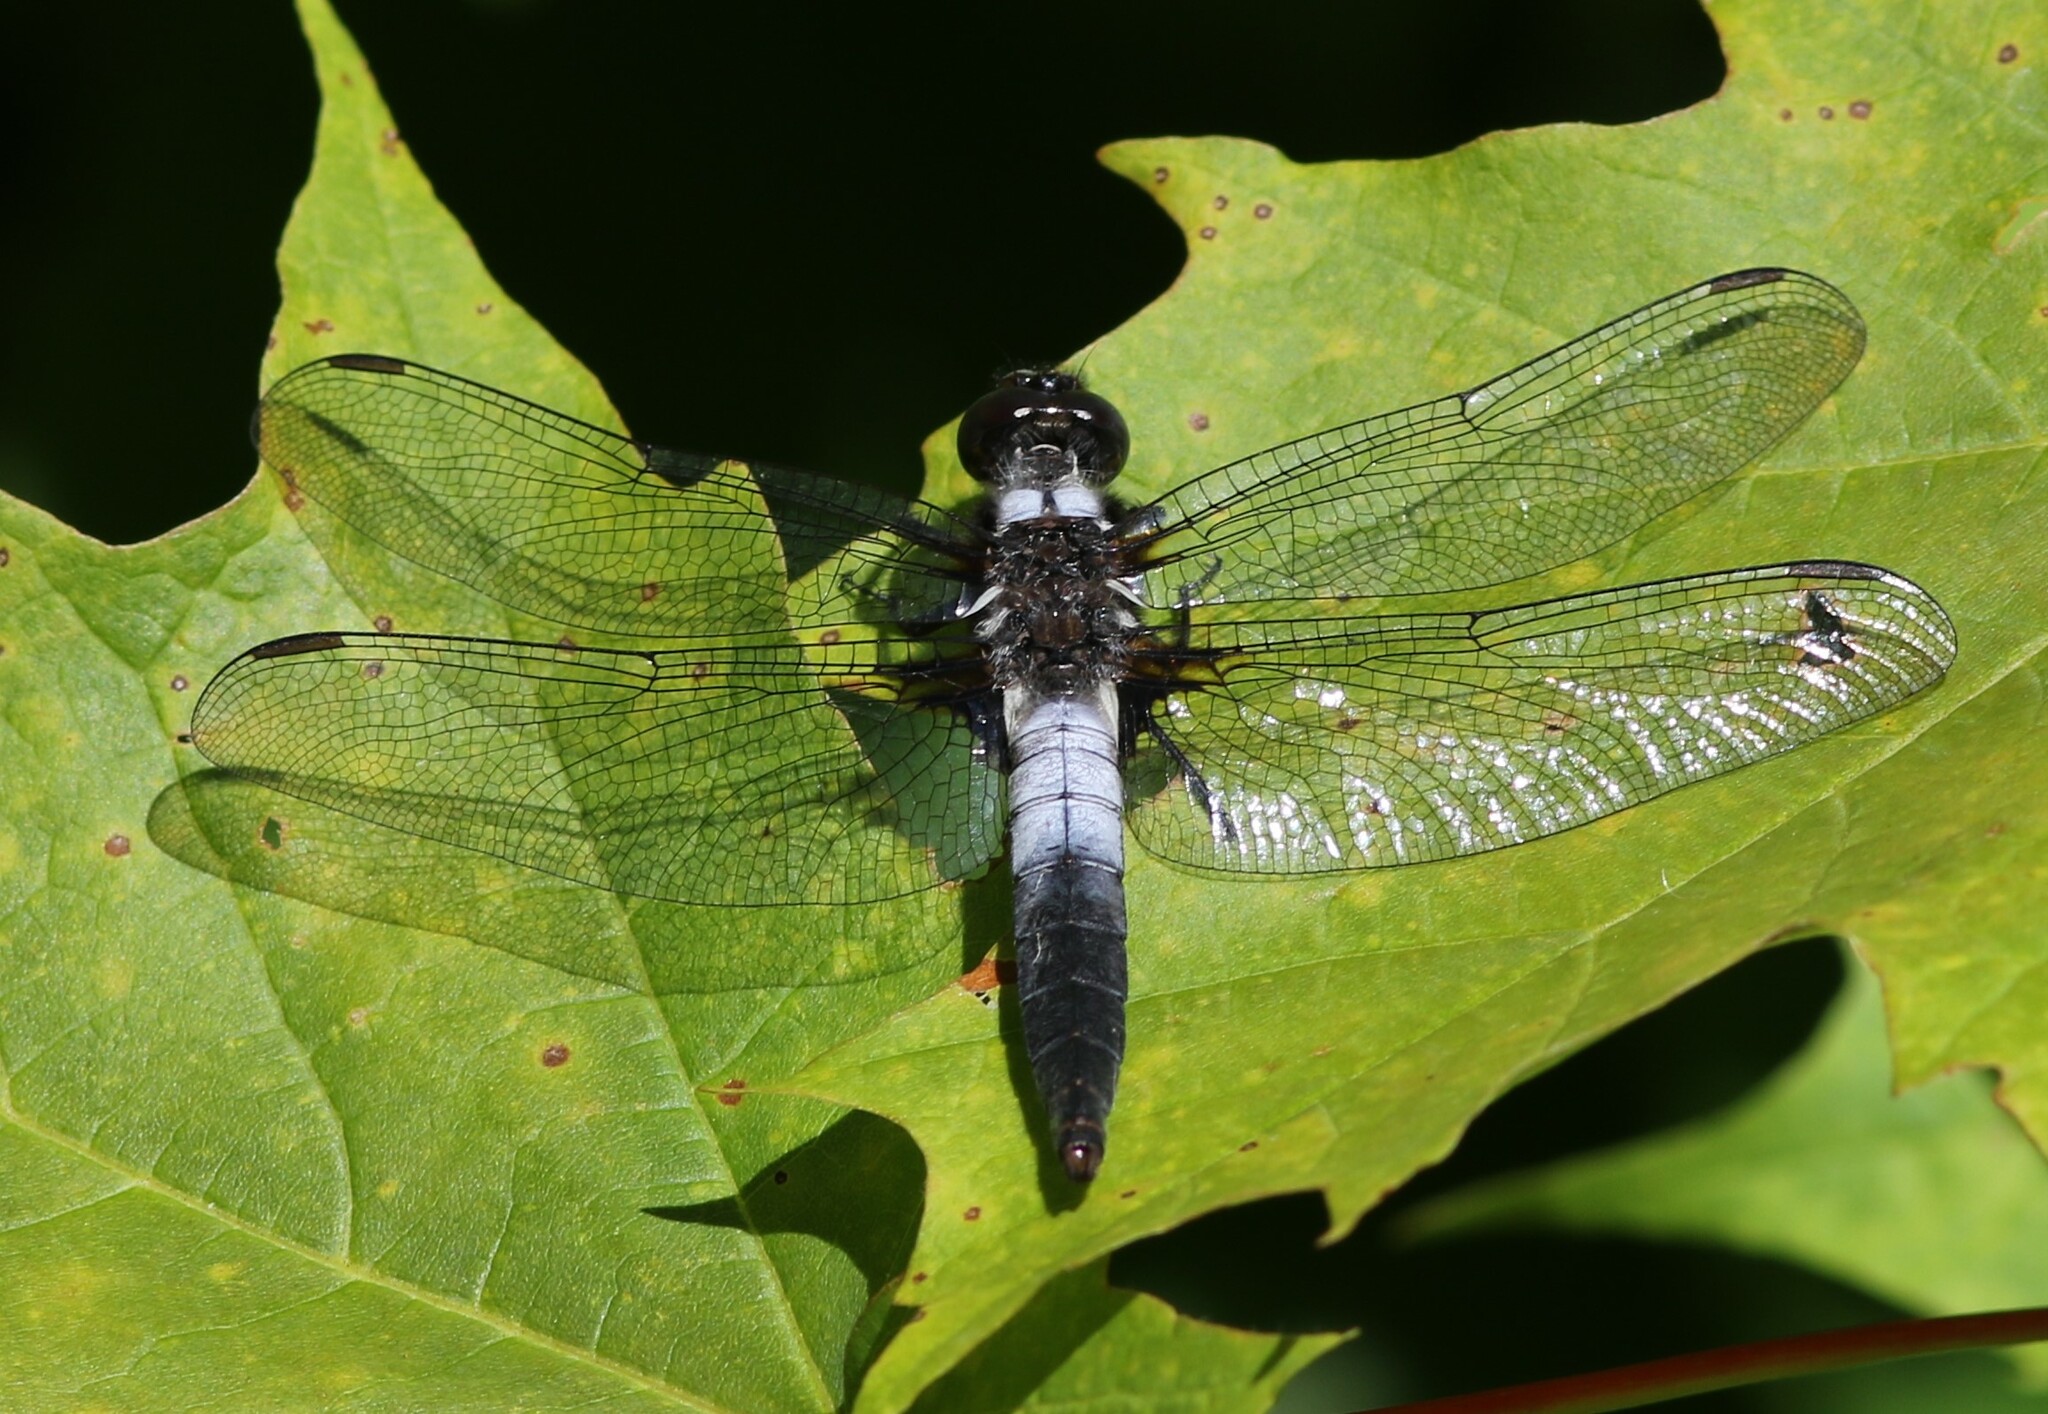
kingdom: Animalia
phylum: Arthropoda
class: Insecta
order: Odonata
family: Libellulidae
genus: Ladona
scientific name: Ladona julia
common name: Chalk-fronted corporal
